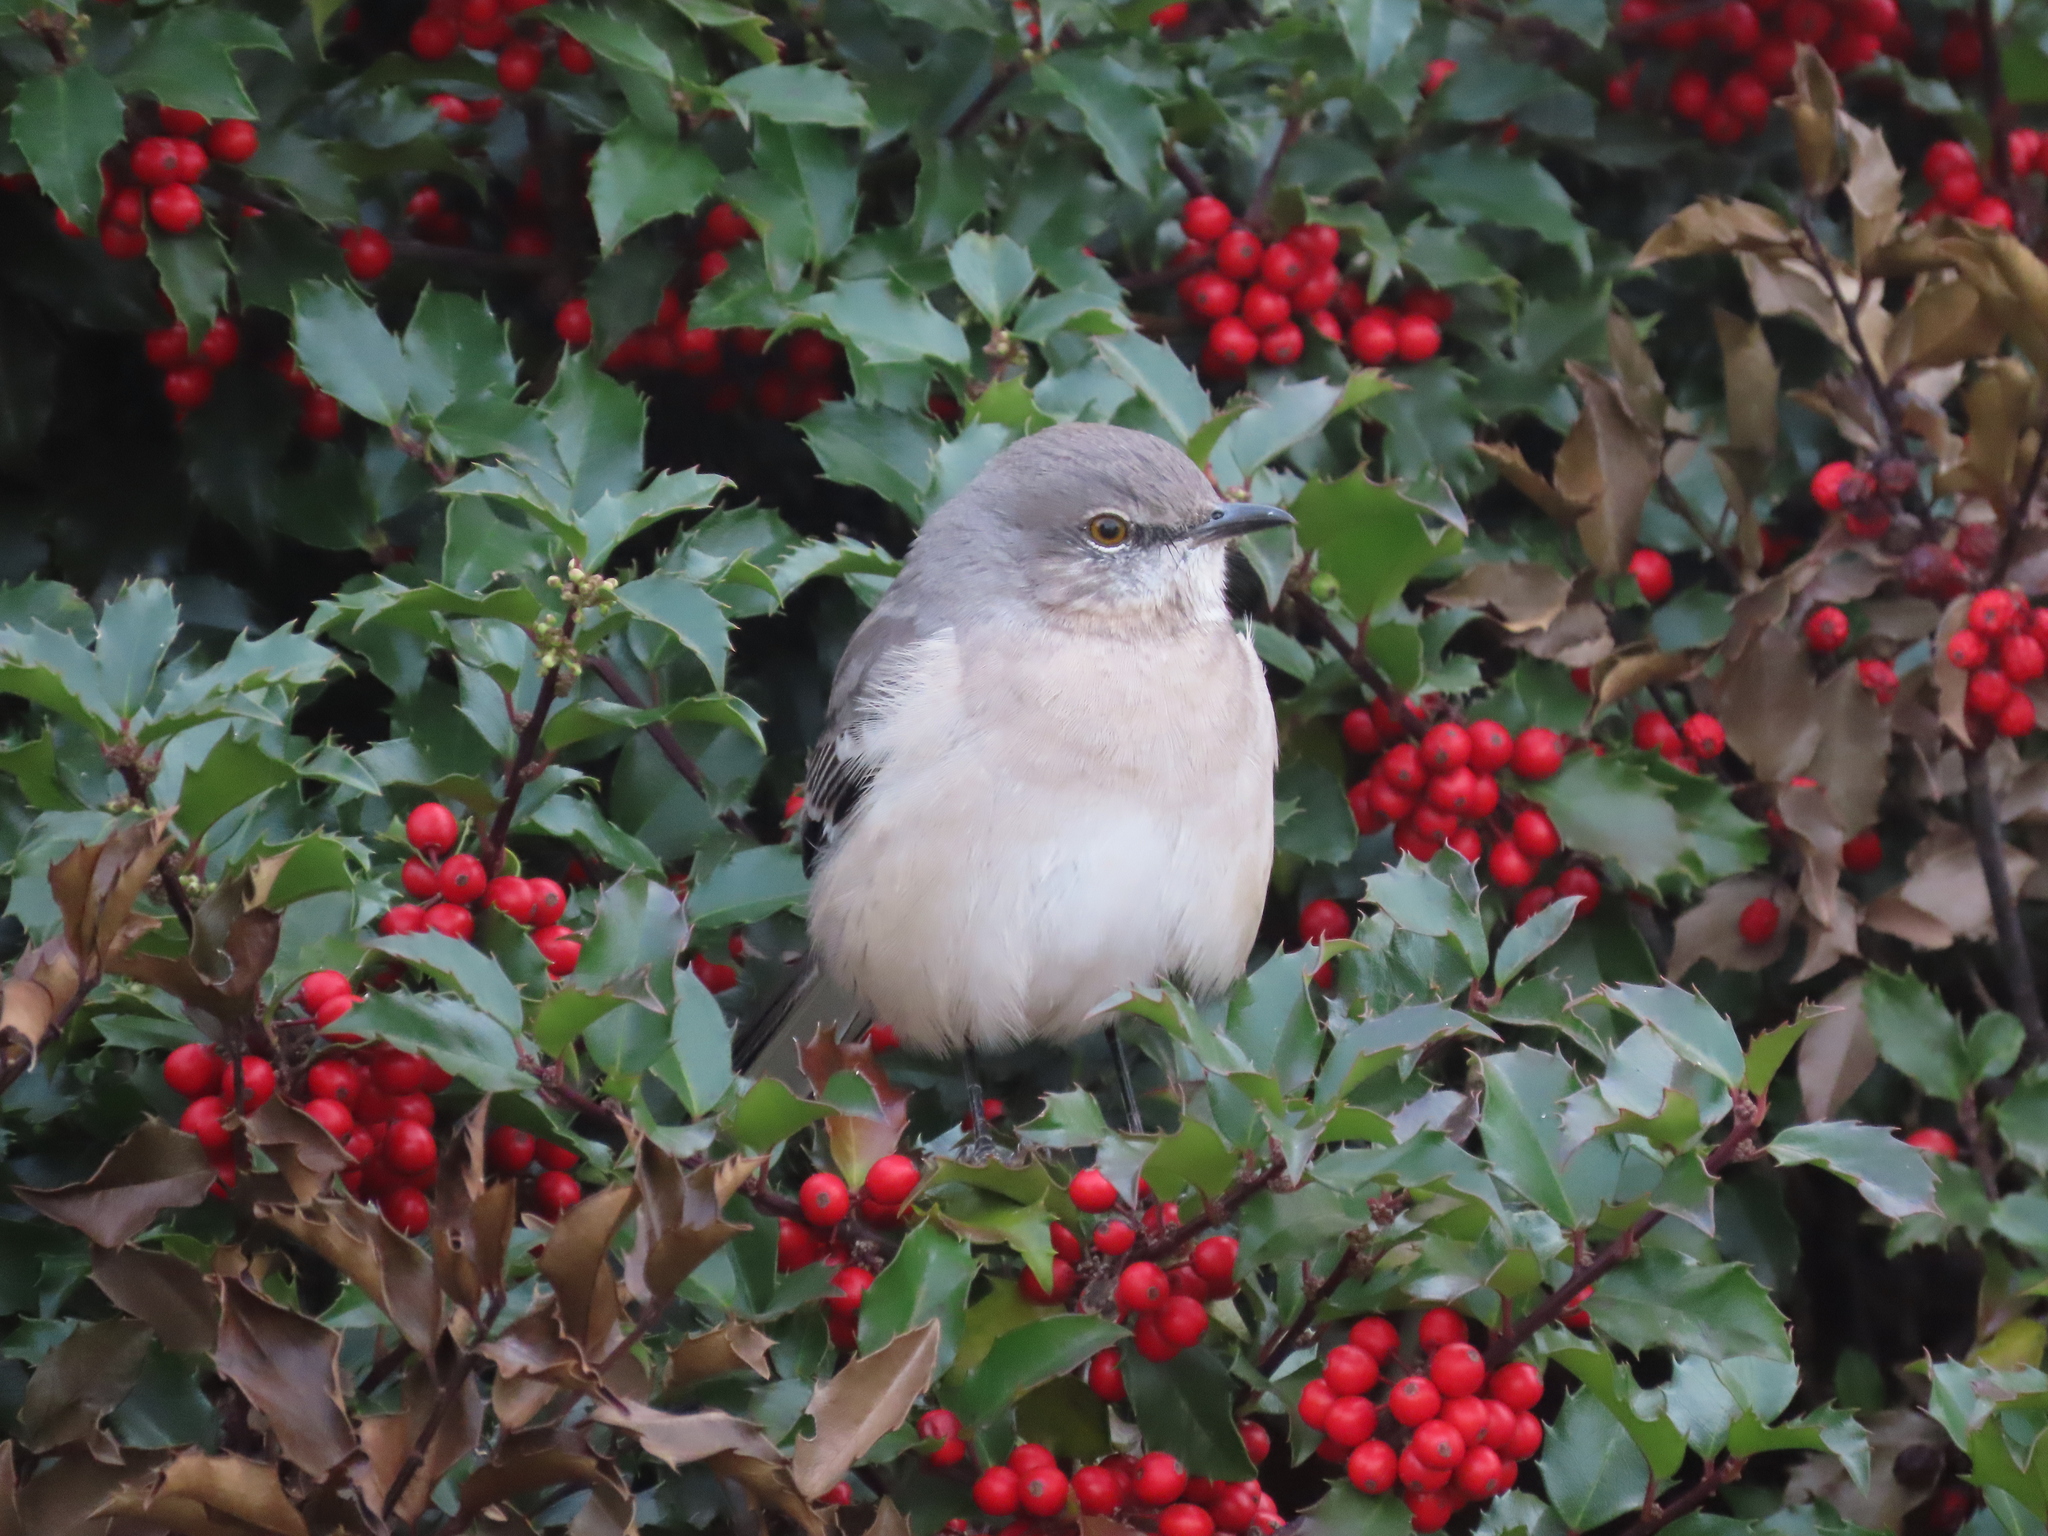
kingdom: Animalia
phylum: Chordata
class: Aves
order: Passeriformes
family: Mimidae
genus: Mimus
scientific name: Mimus polyglottos
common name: Northern mockingbird
